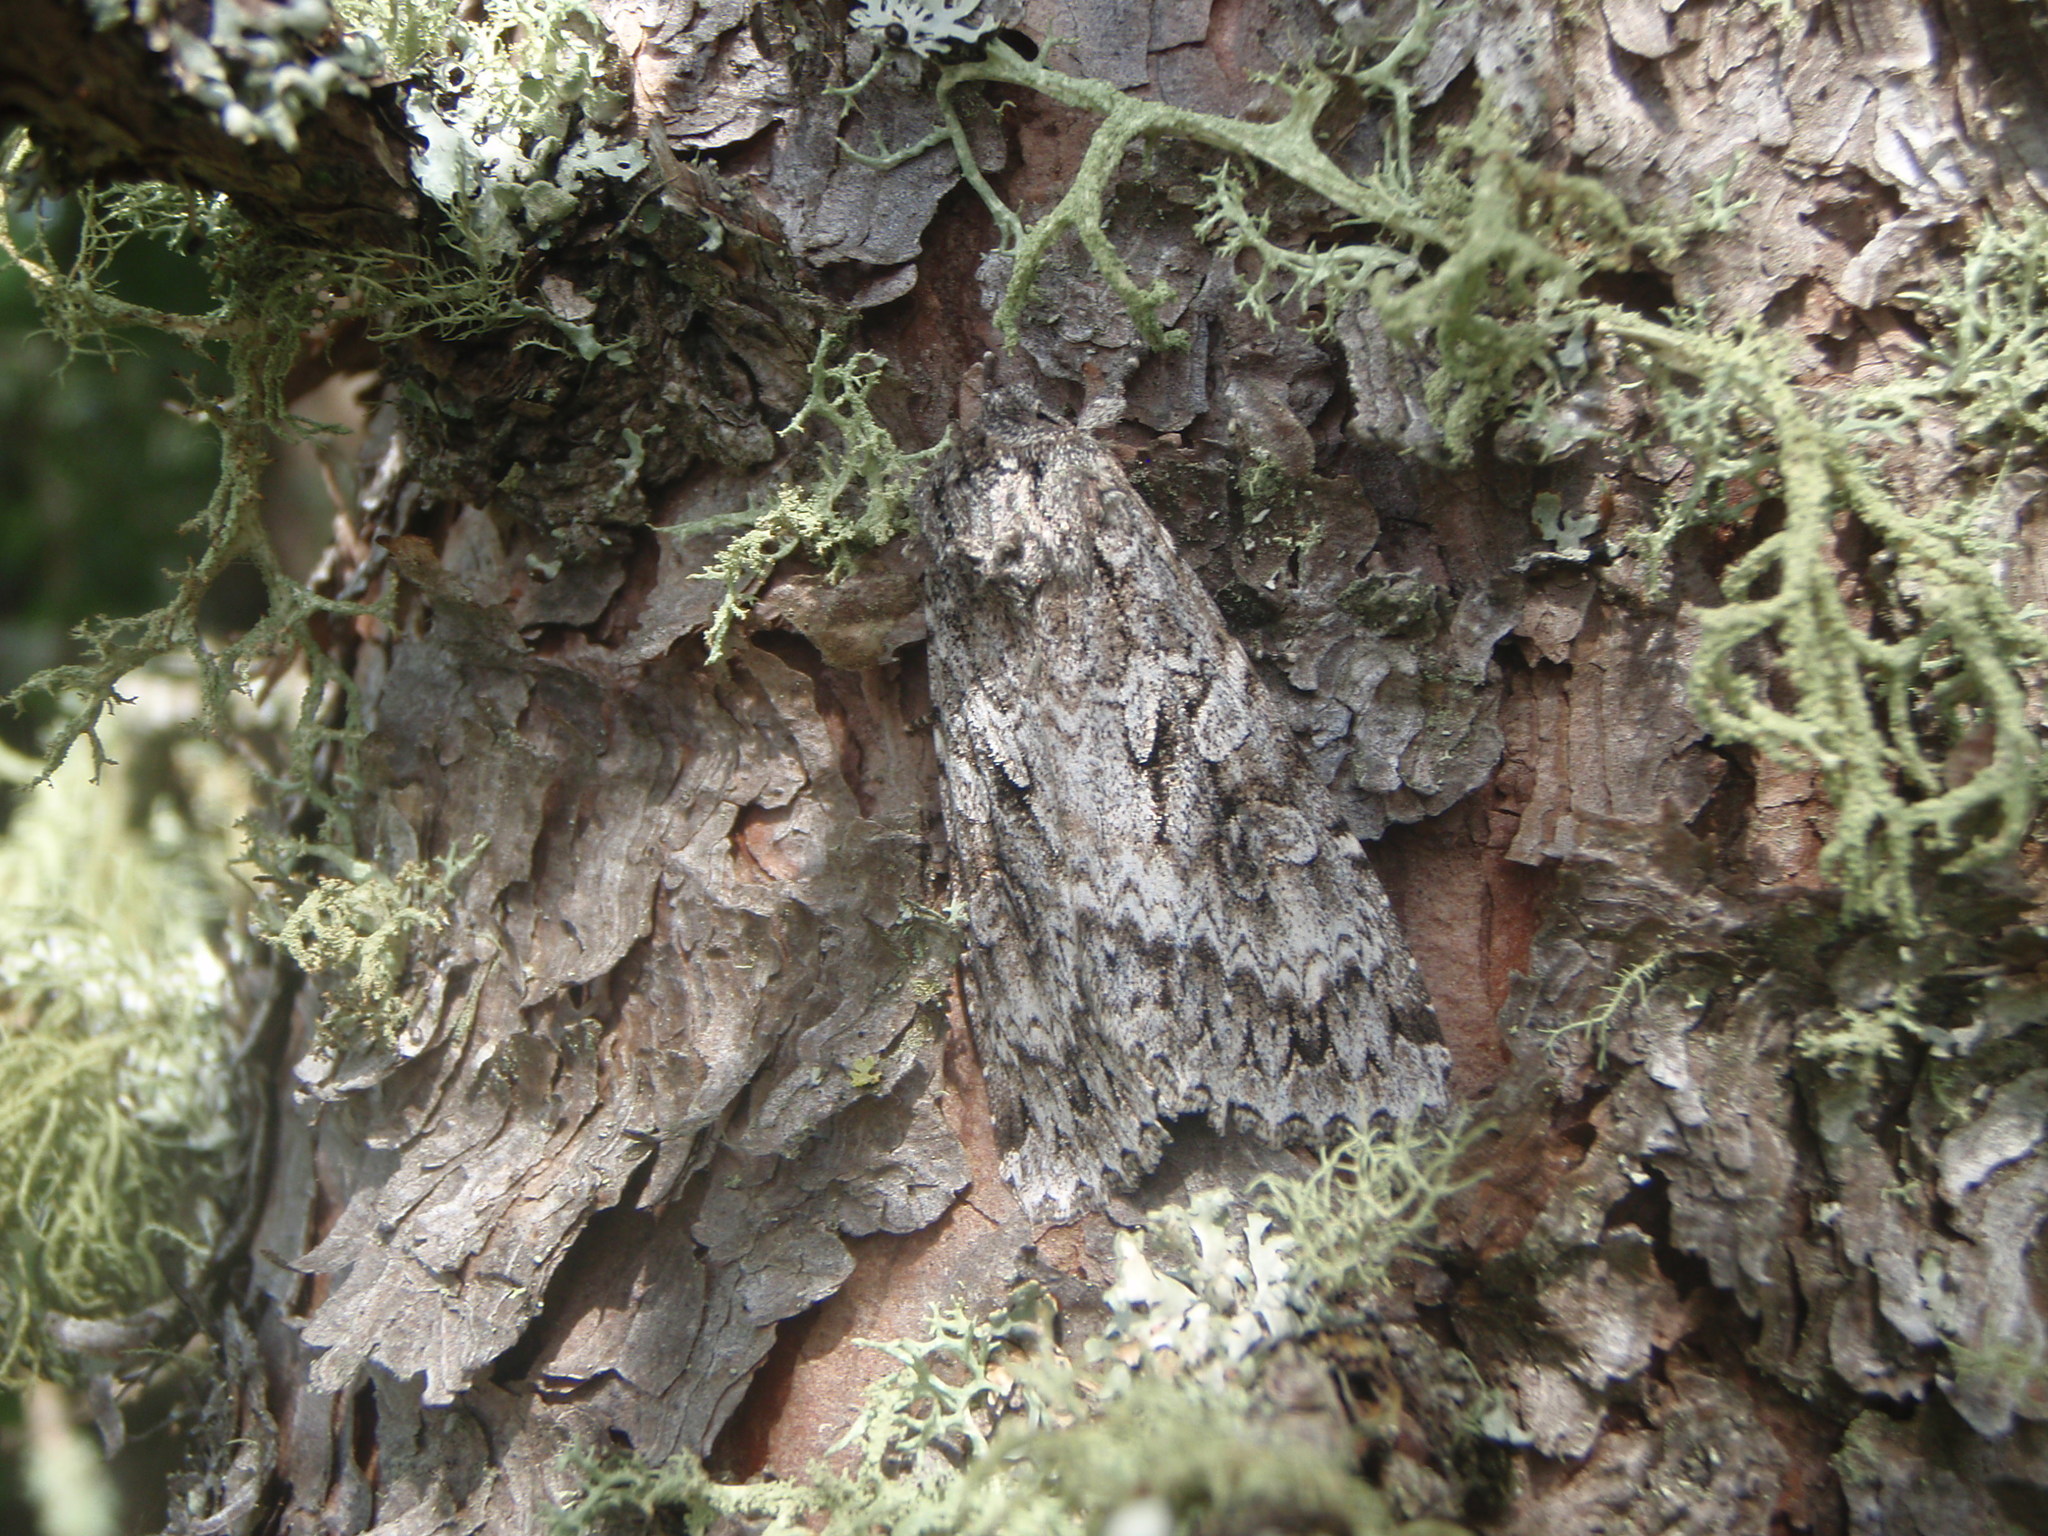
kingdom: Animalia
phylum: Arthropoda
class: Insecta
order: Lepidoptera
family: Noctuidae
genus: Eurois
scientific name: Eurois occulta
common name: Great brocade
